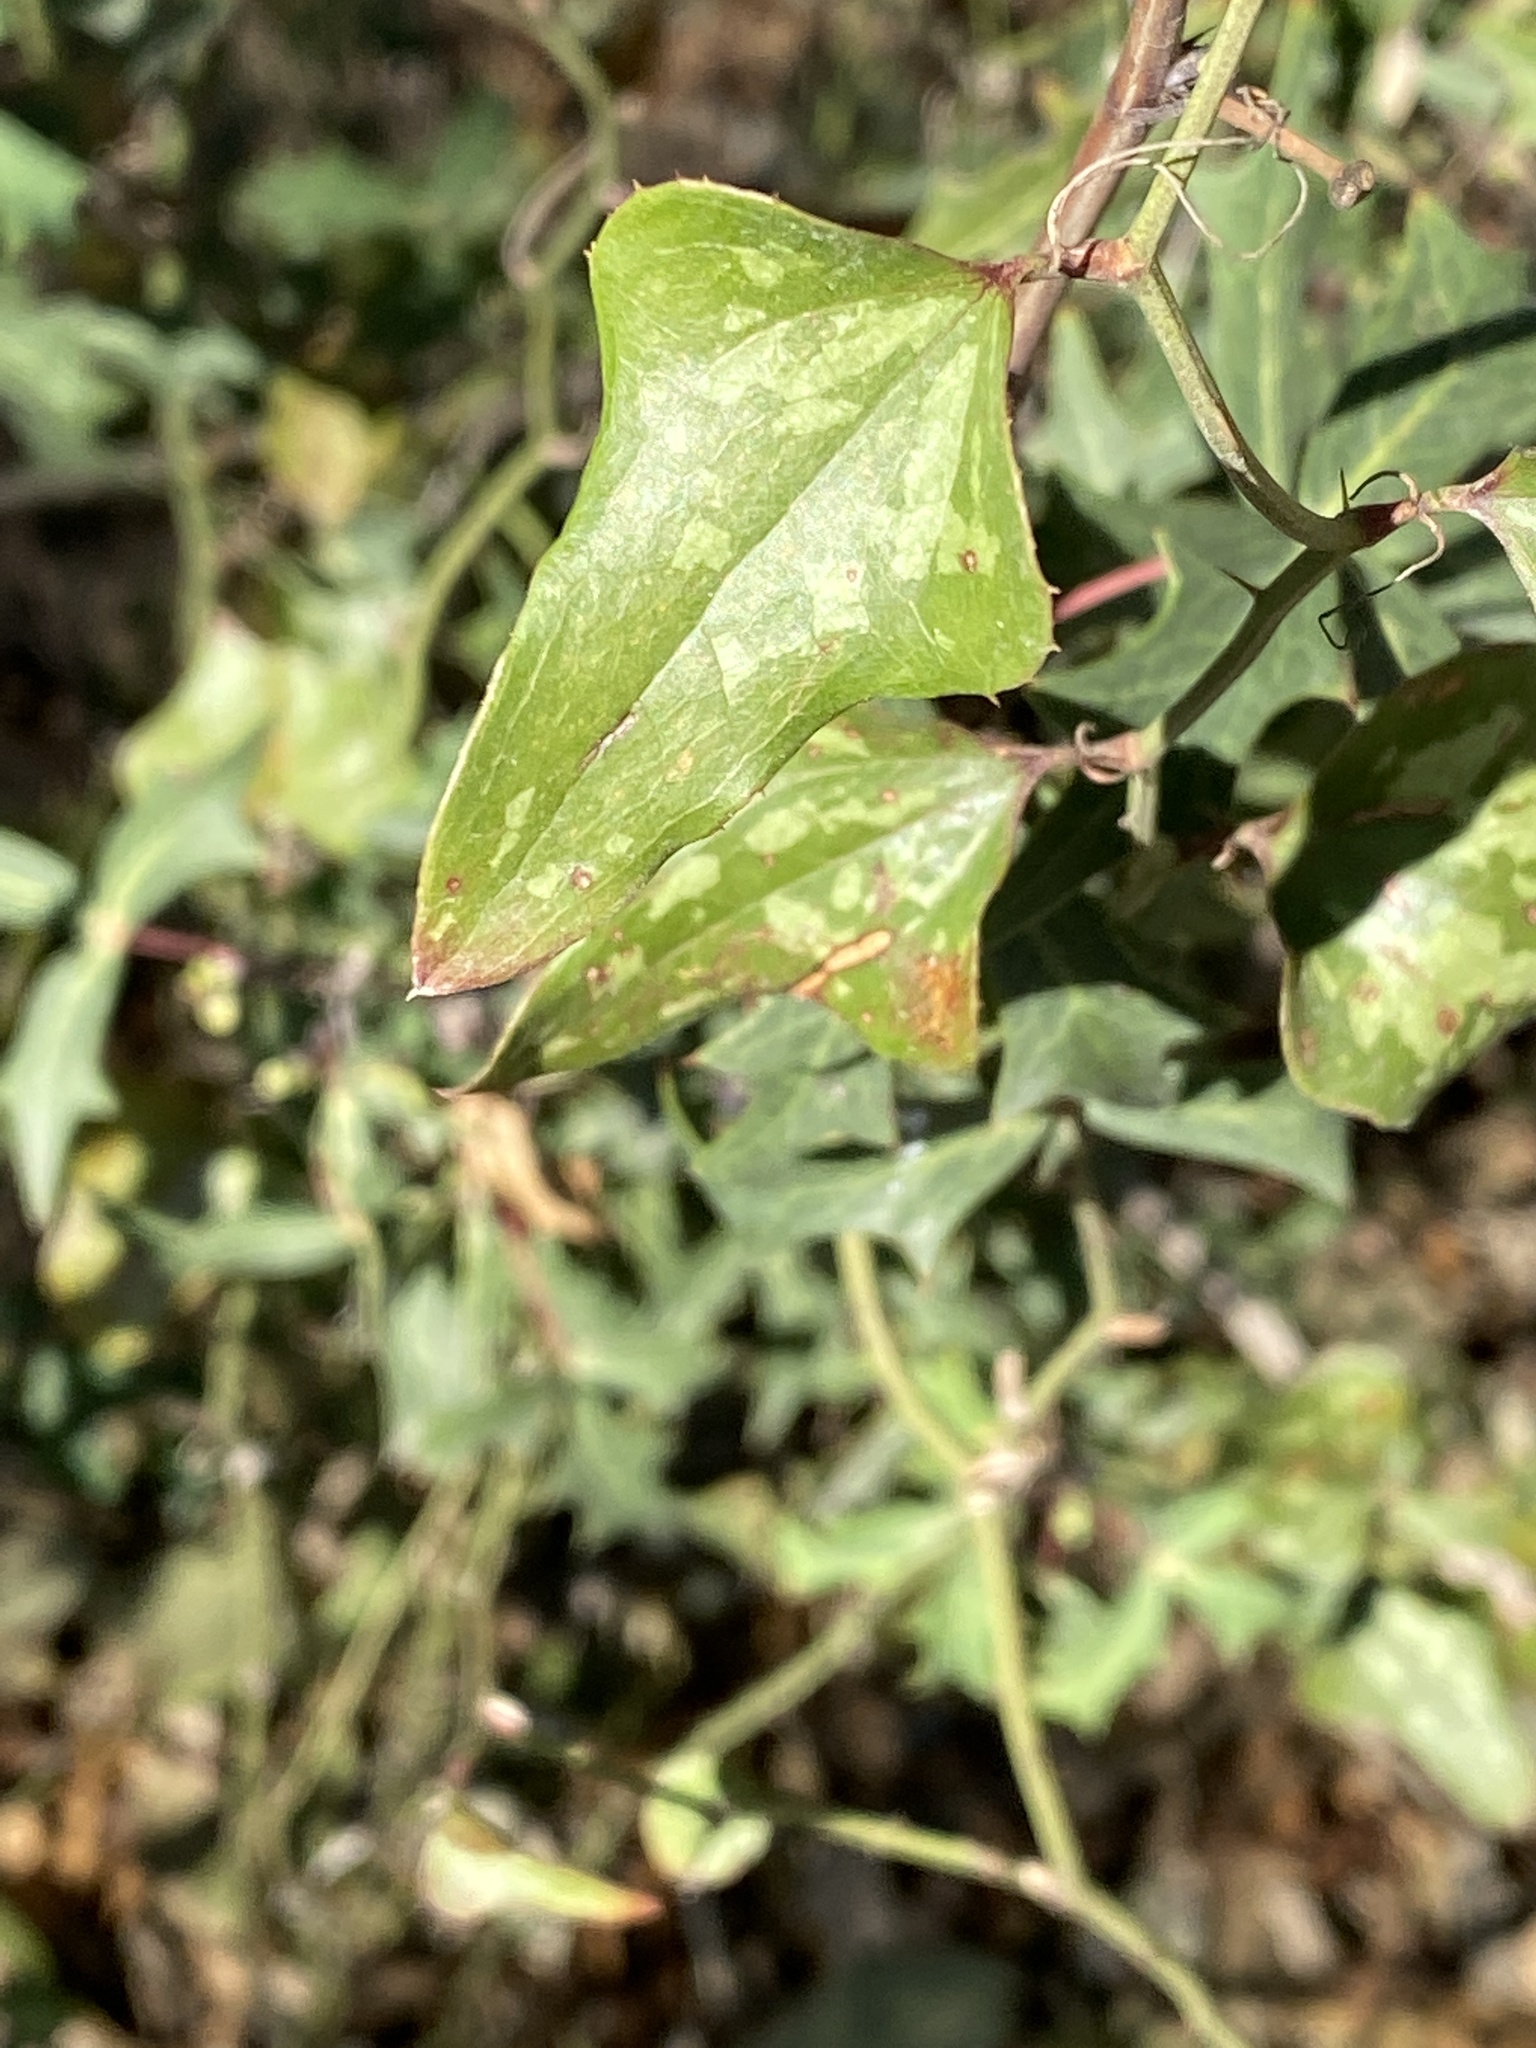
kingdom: Plantae
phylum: Tracheophyta
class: Liliopsida
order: Liliales
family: Smilacaceae
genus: Smilax
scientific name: Smilax bona-nox
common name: Catbrier
